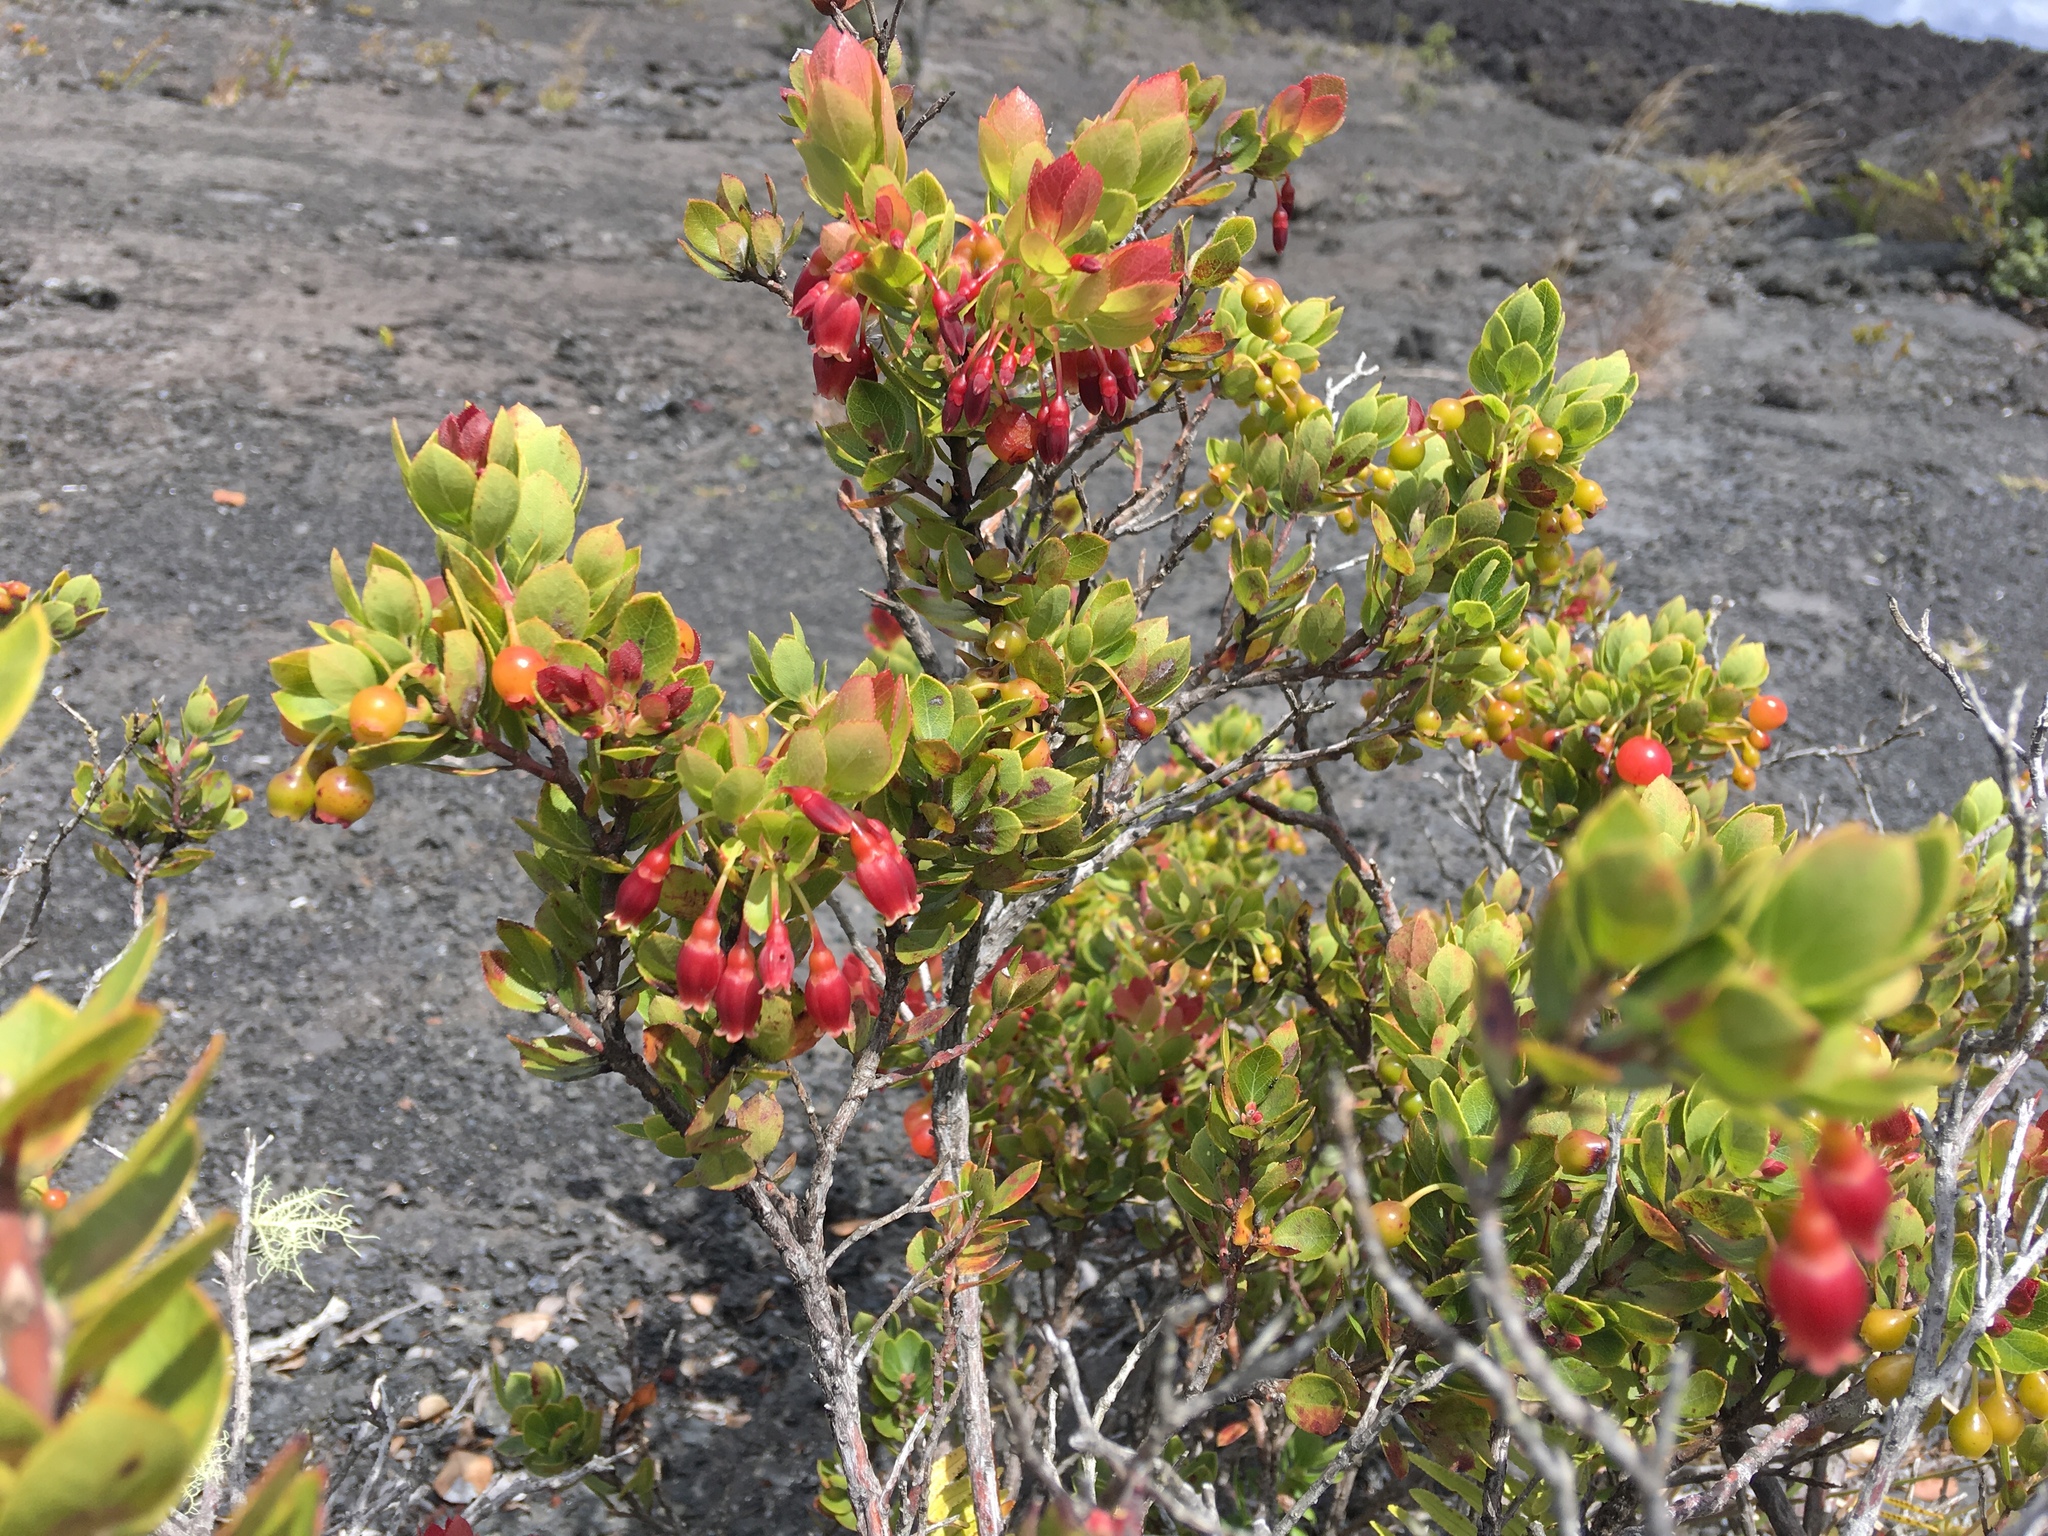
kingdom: Plantae
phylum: Tracheophyta
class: Magnoliopsida
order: Ericales
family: Ericaceae
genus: Vaccinium
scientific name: Vaccinium reticulatum
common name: Ohelo
